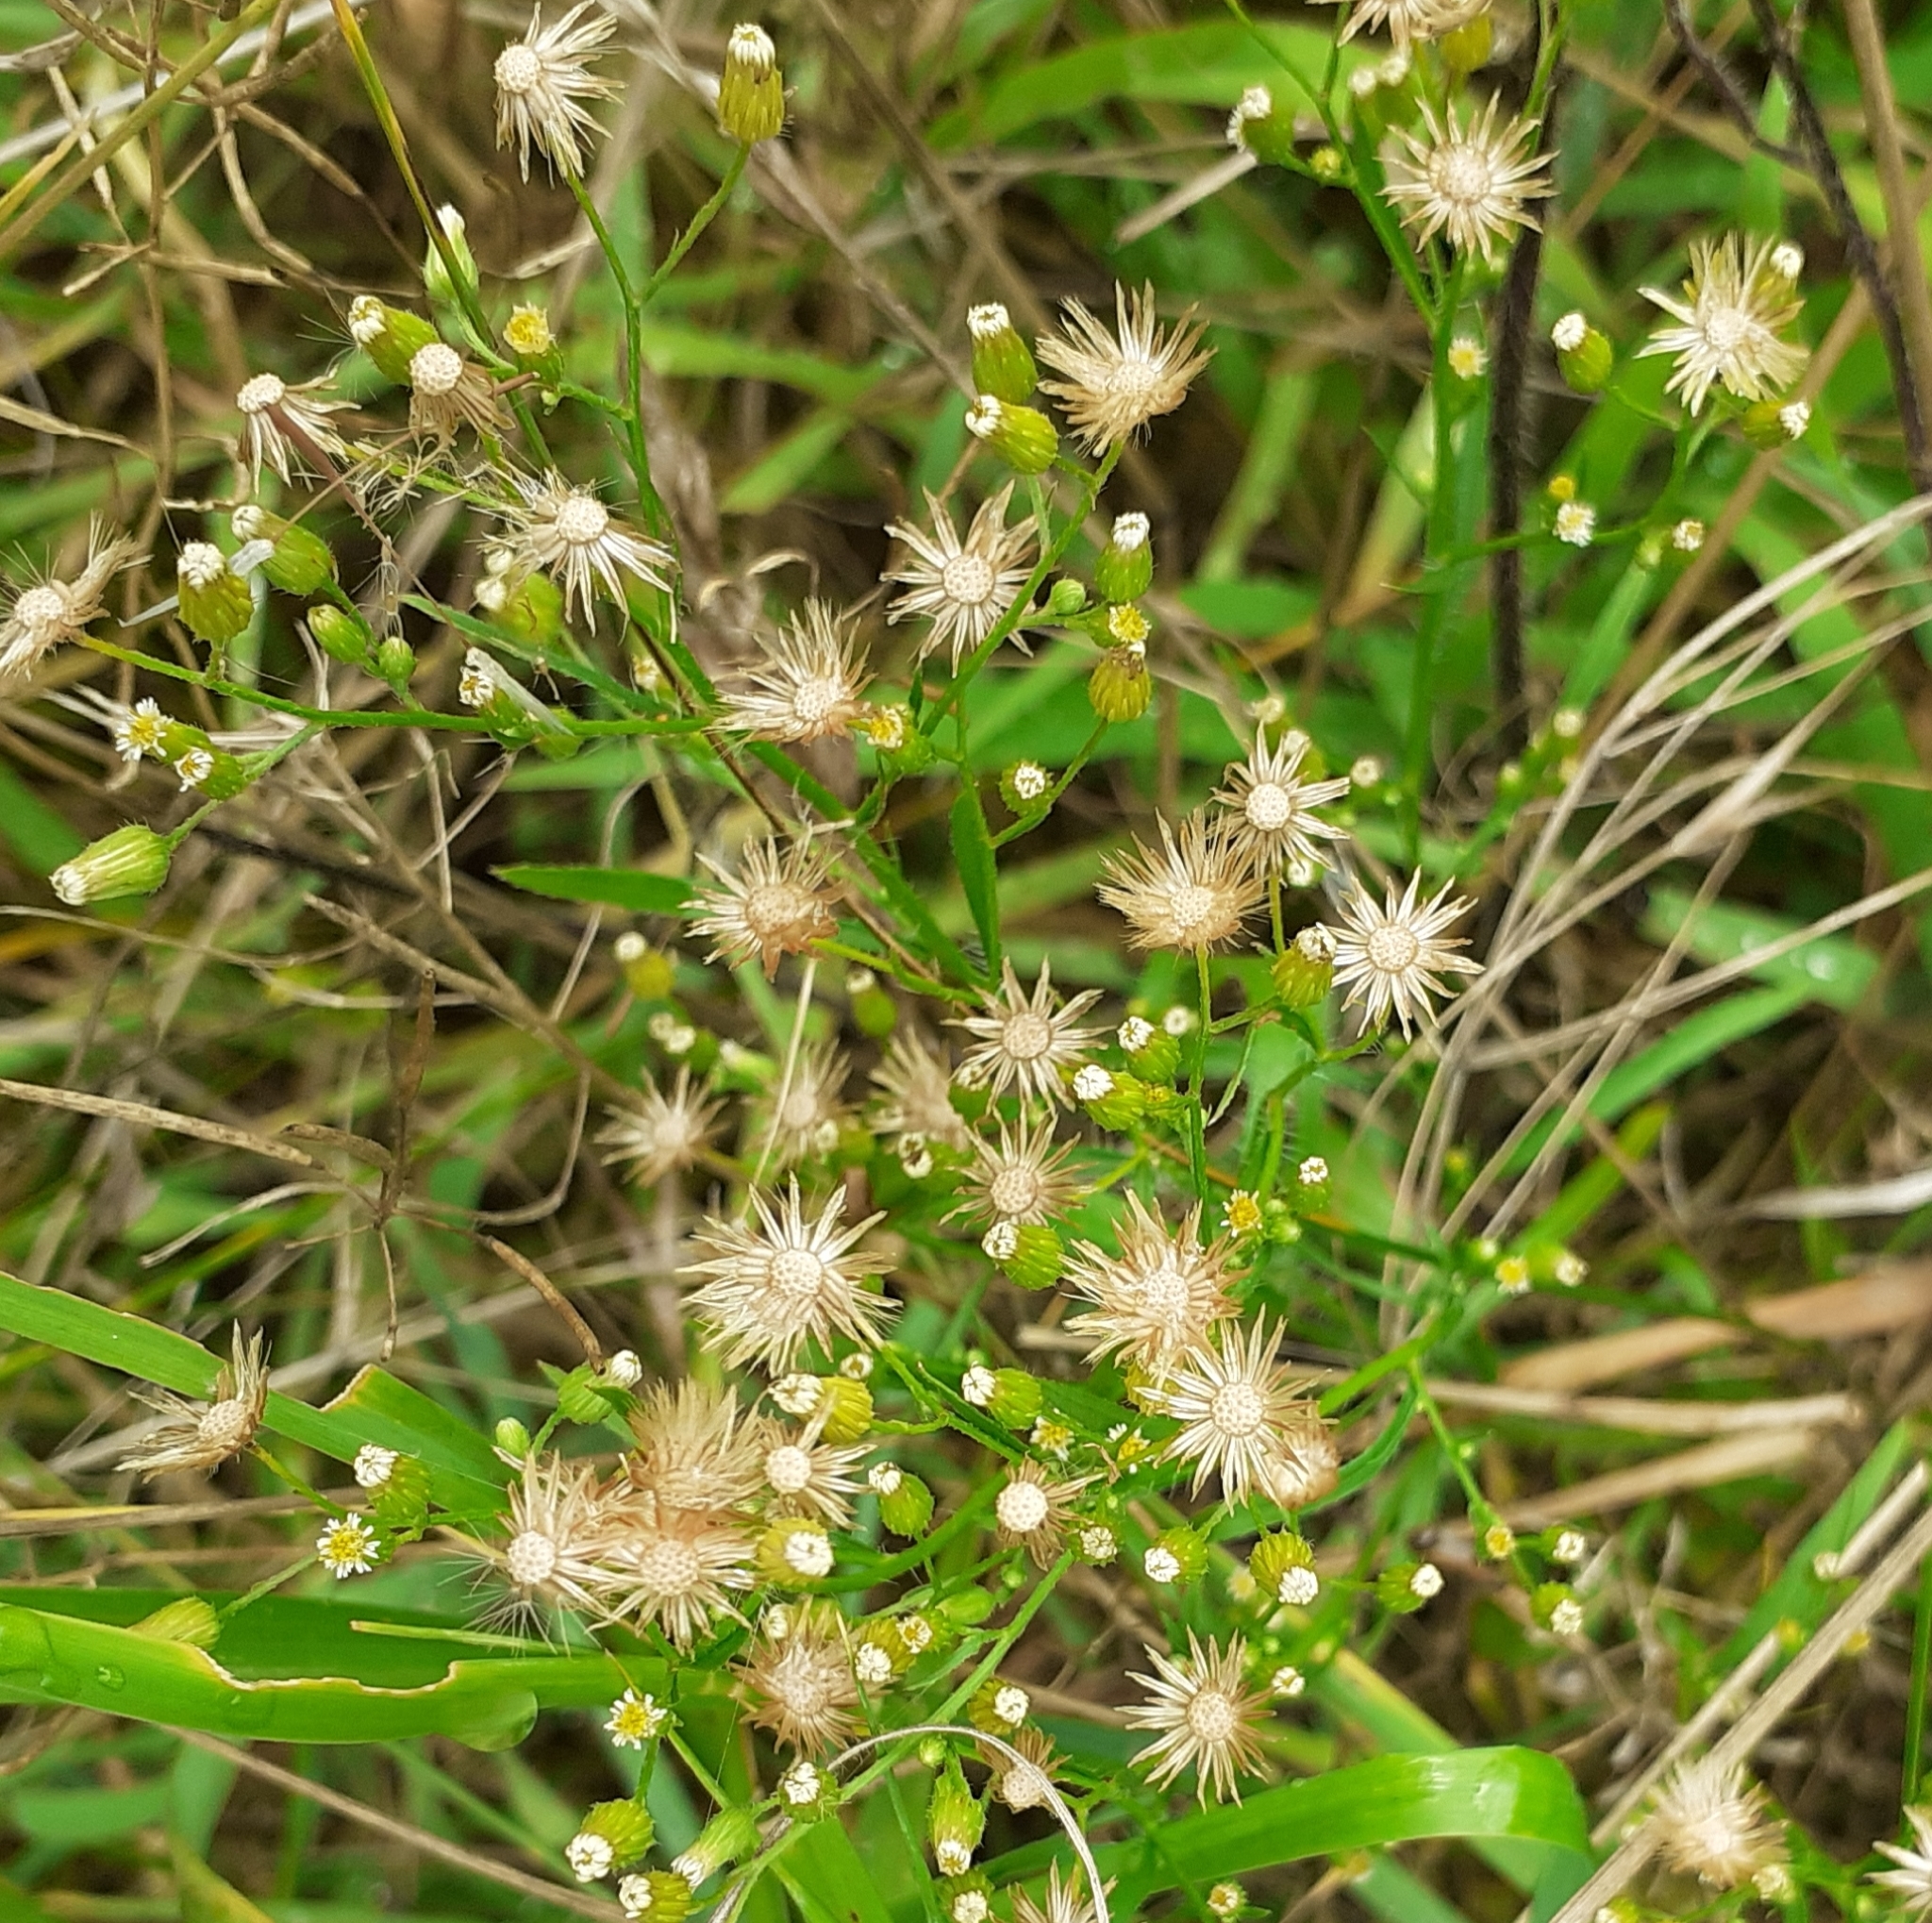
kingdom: Plantae
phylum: Tracheophyta
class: Magnoliopsida
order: Asterales
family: Asteraceae
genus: Erigeron
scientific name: Erigeron canadensis
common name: Canadian fleabane
